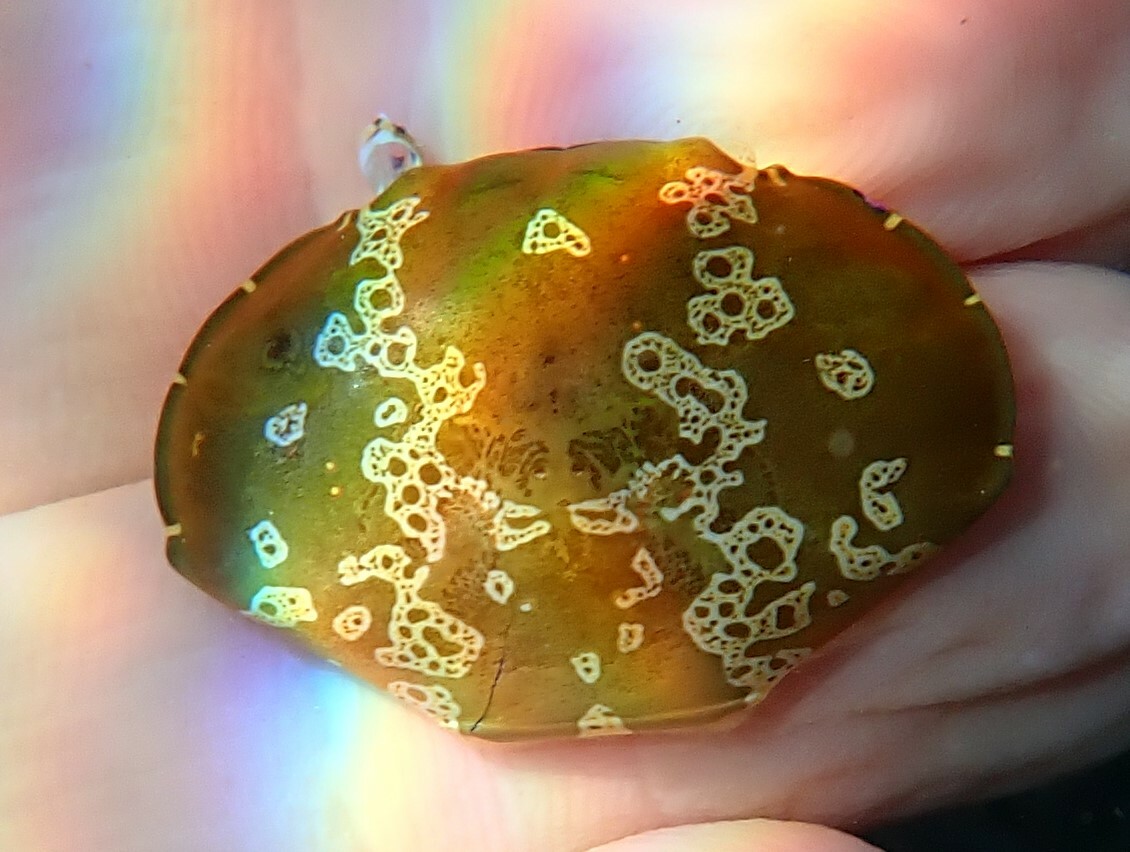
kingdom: Animalia
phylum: Arthropoda
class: Malacostraca
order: Decapoda
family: Xanthidae
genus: Atergatis
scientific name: Atergatis floridus
